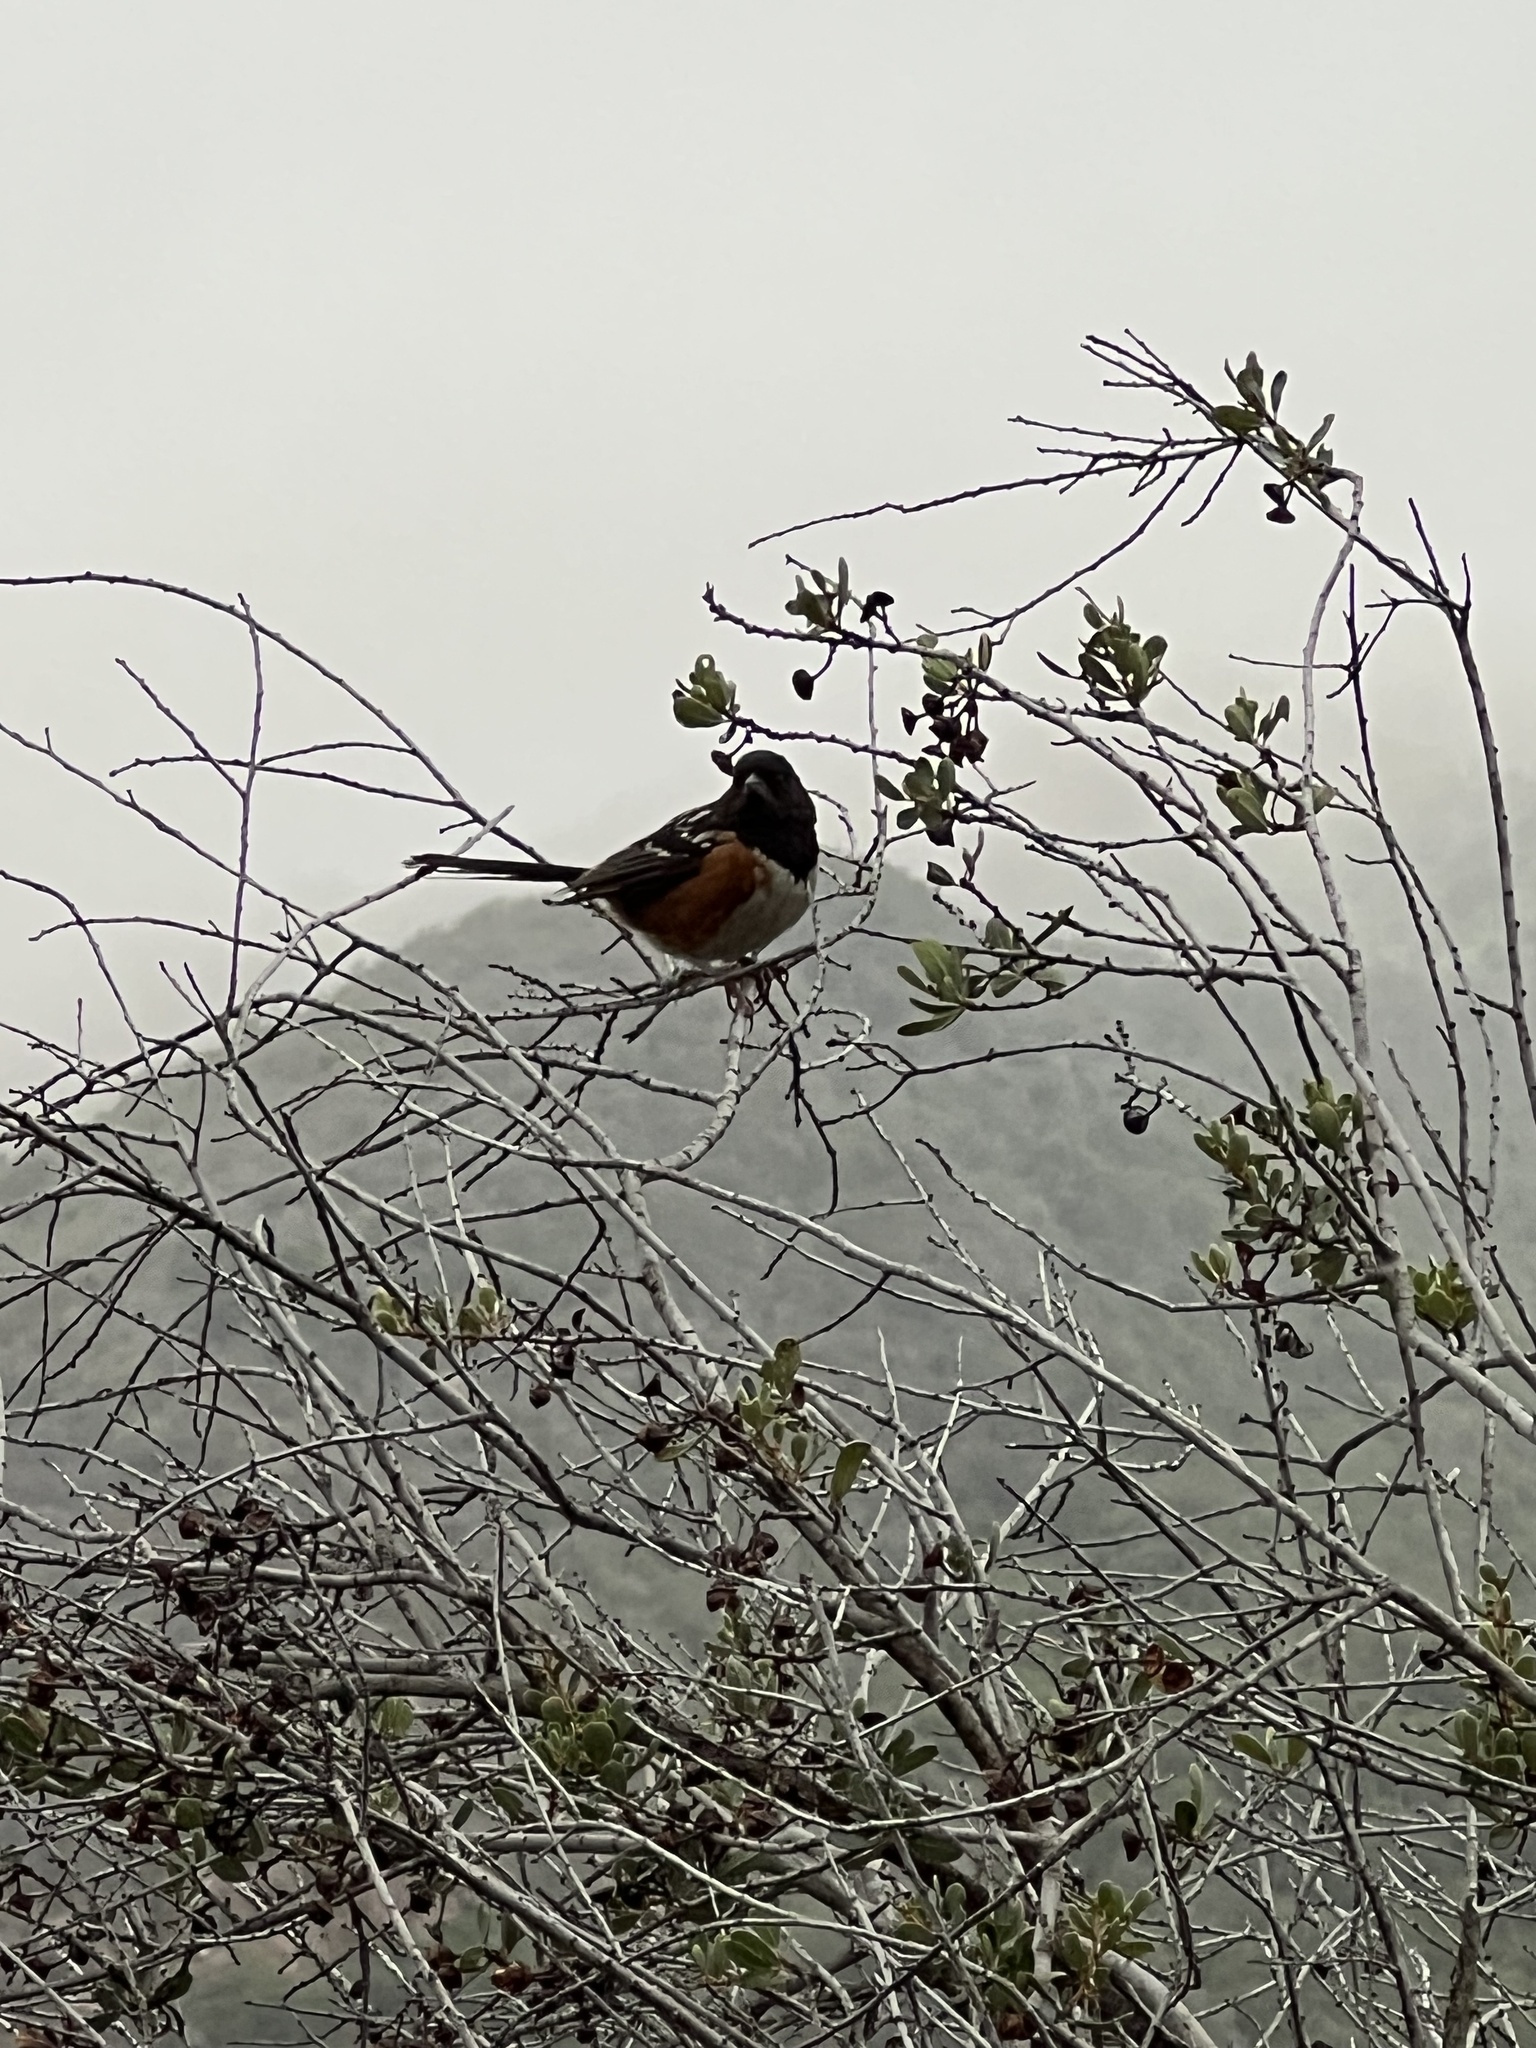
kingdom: Animalia
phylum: Chordata
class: Aves
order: Passeriformes
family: Passerellidae
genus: Pipilo
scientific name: Pipilo maculatus
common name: Spotted towhee
